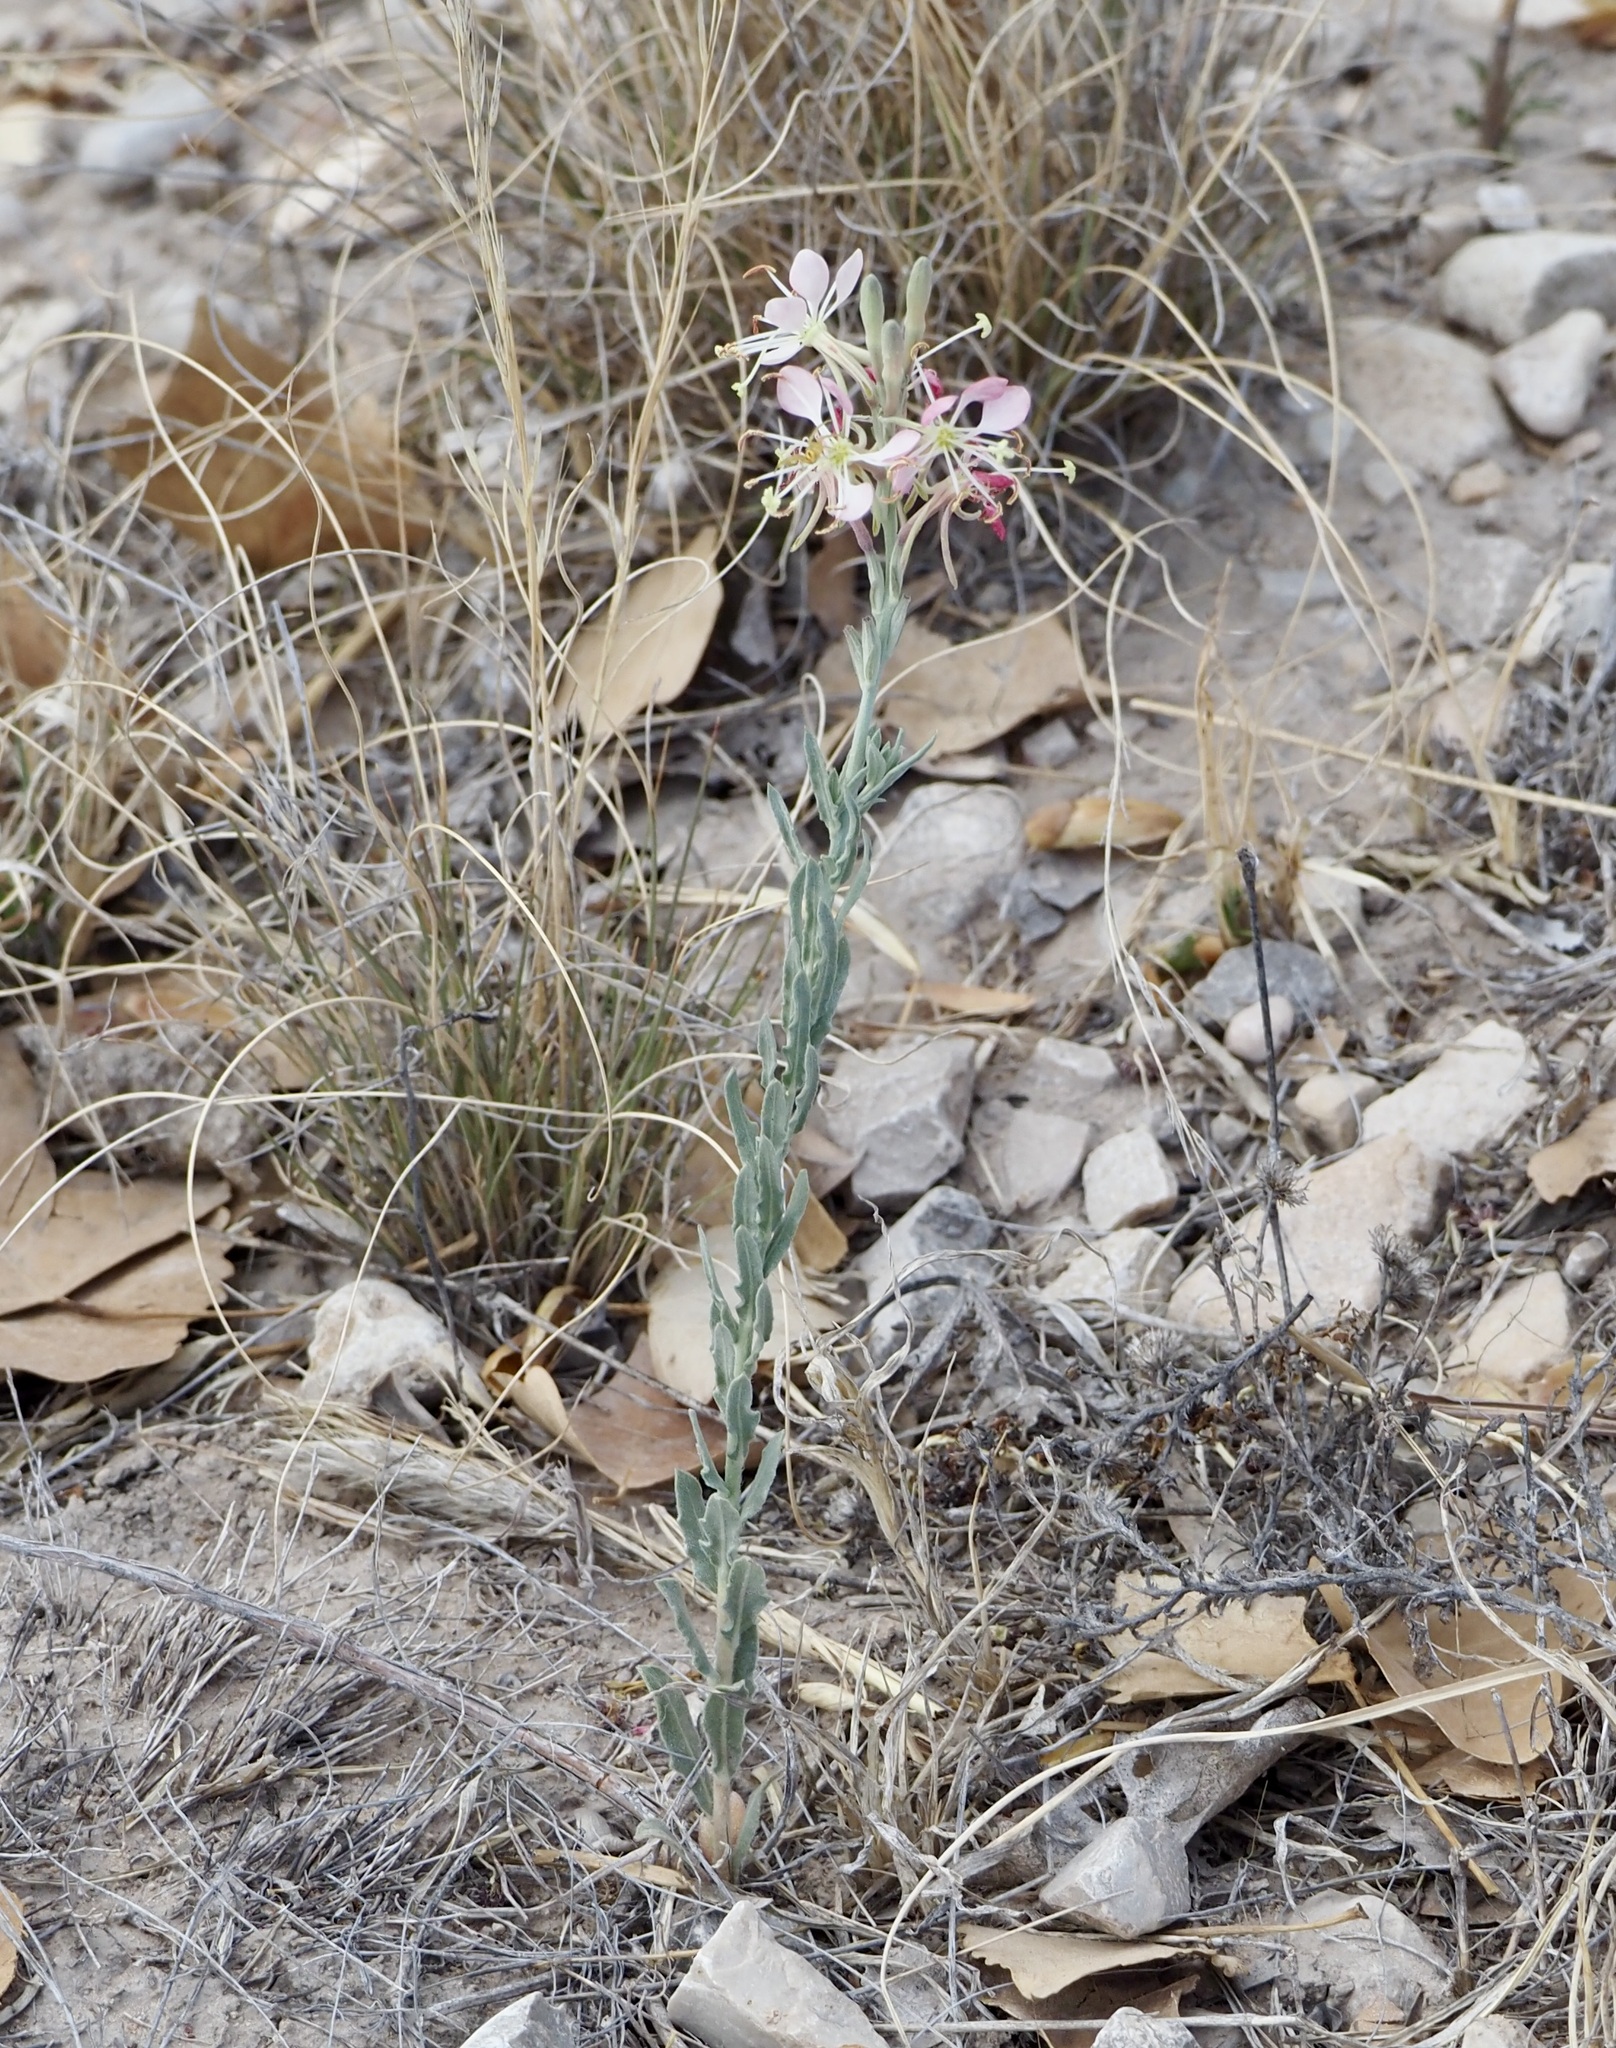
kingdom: Plantae
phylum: Tracheophyta
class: Magnoliopsida
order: Myrtales
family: Onagraceae
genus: Oenothera
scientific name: Oenothera suffrutescens
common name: Scarlet beeblossom
